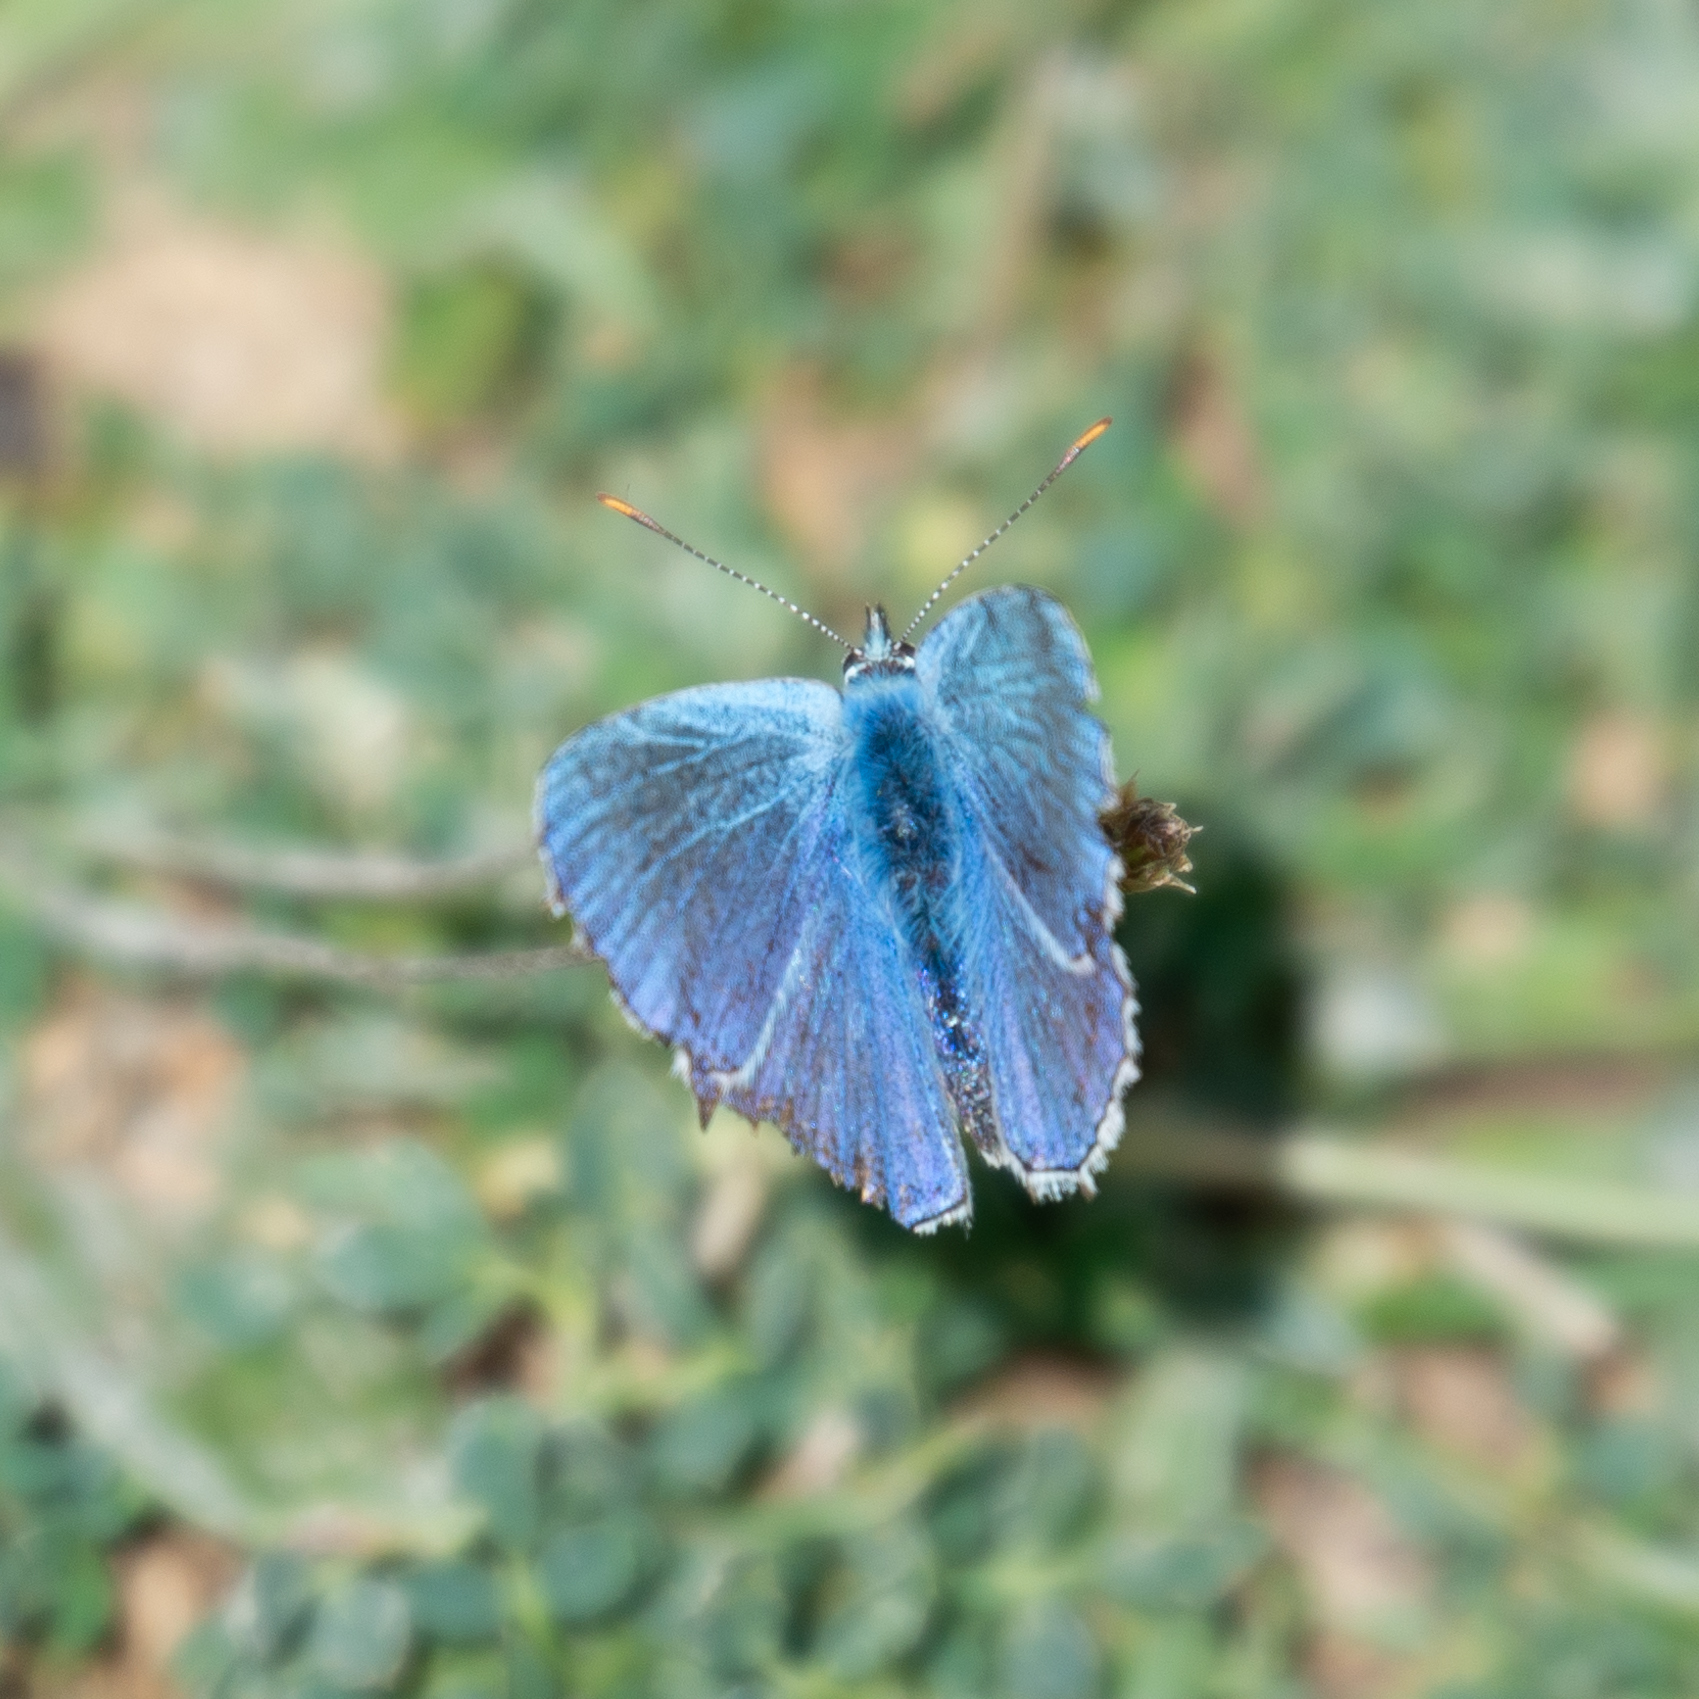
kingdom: Animalia
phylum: Arthropoda
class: Insecta
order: Lepidoptera
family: Lycaenidae
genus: Lysandra
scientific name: Lysandra bellargus
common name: Adonis blue
